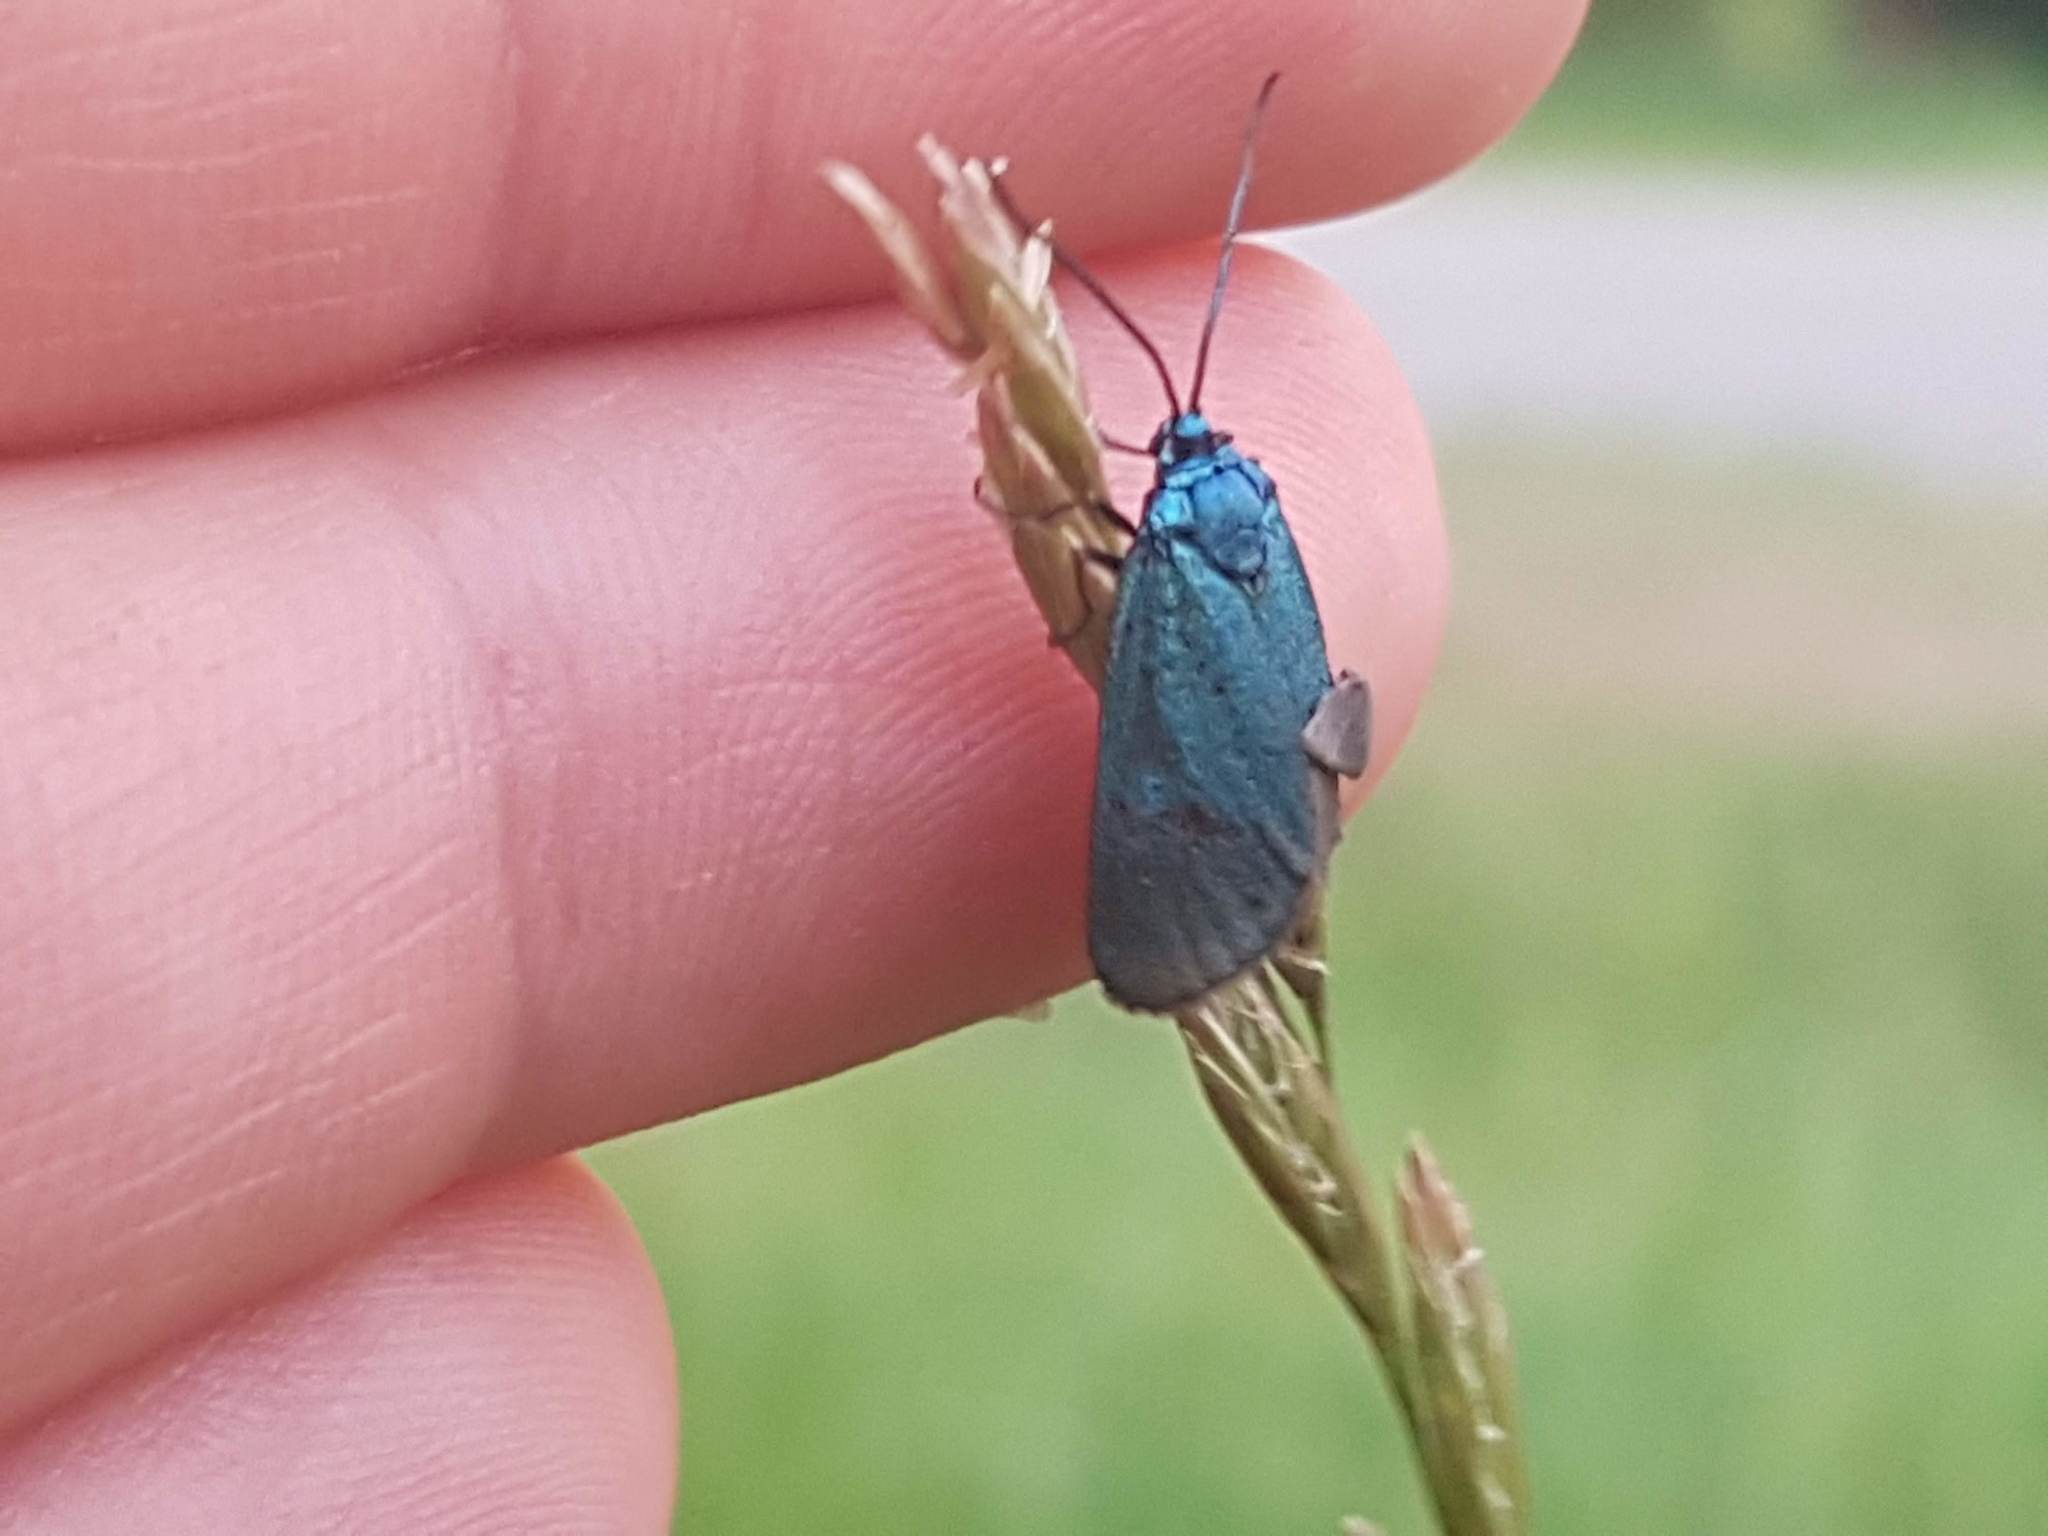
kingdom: Animalia
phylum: Arthropoda
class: Insecta
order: Lepidoptera
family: Zygaenidae
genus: Adscita
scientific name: Adscita statices
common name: Forester
